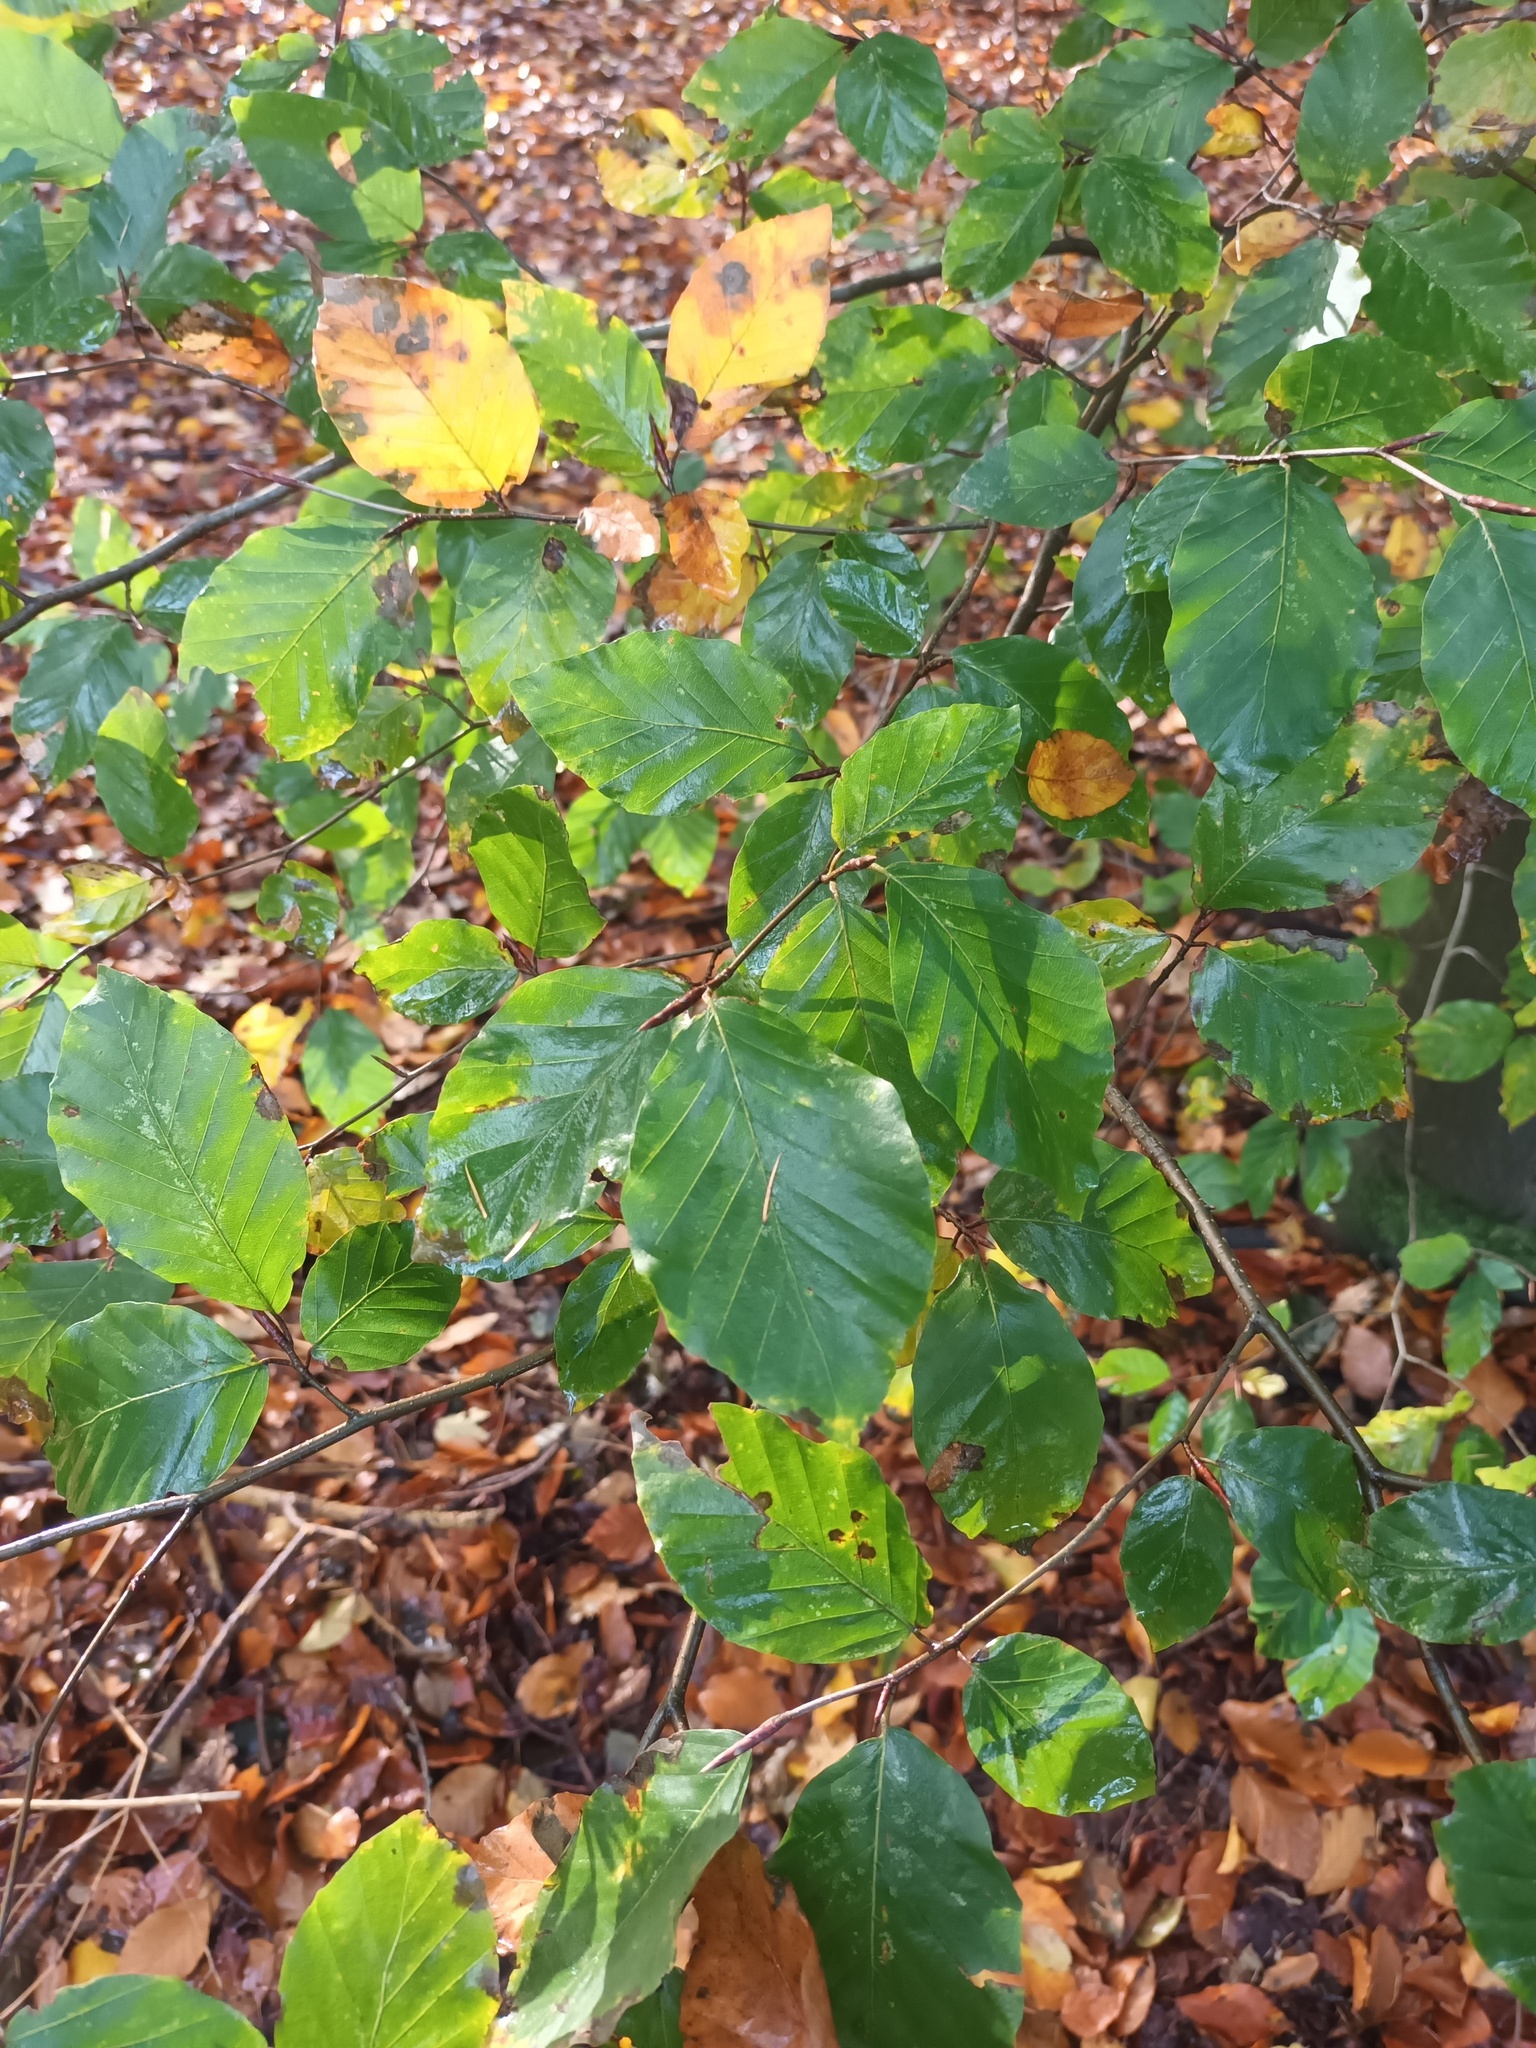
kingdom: Plantae
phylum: Tracheophyta
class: Magnoliopsida
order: Fagales
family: Fagaceae
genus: Fagus
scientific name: Fagus sylvatica
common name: Beech
